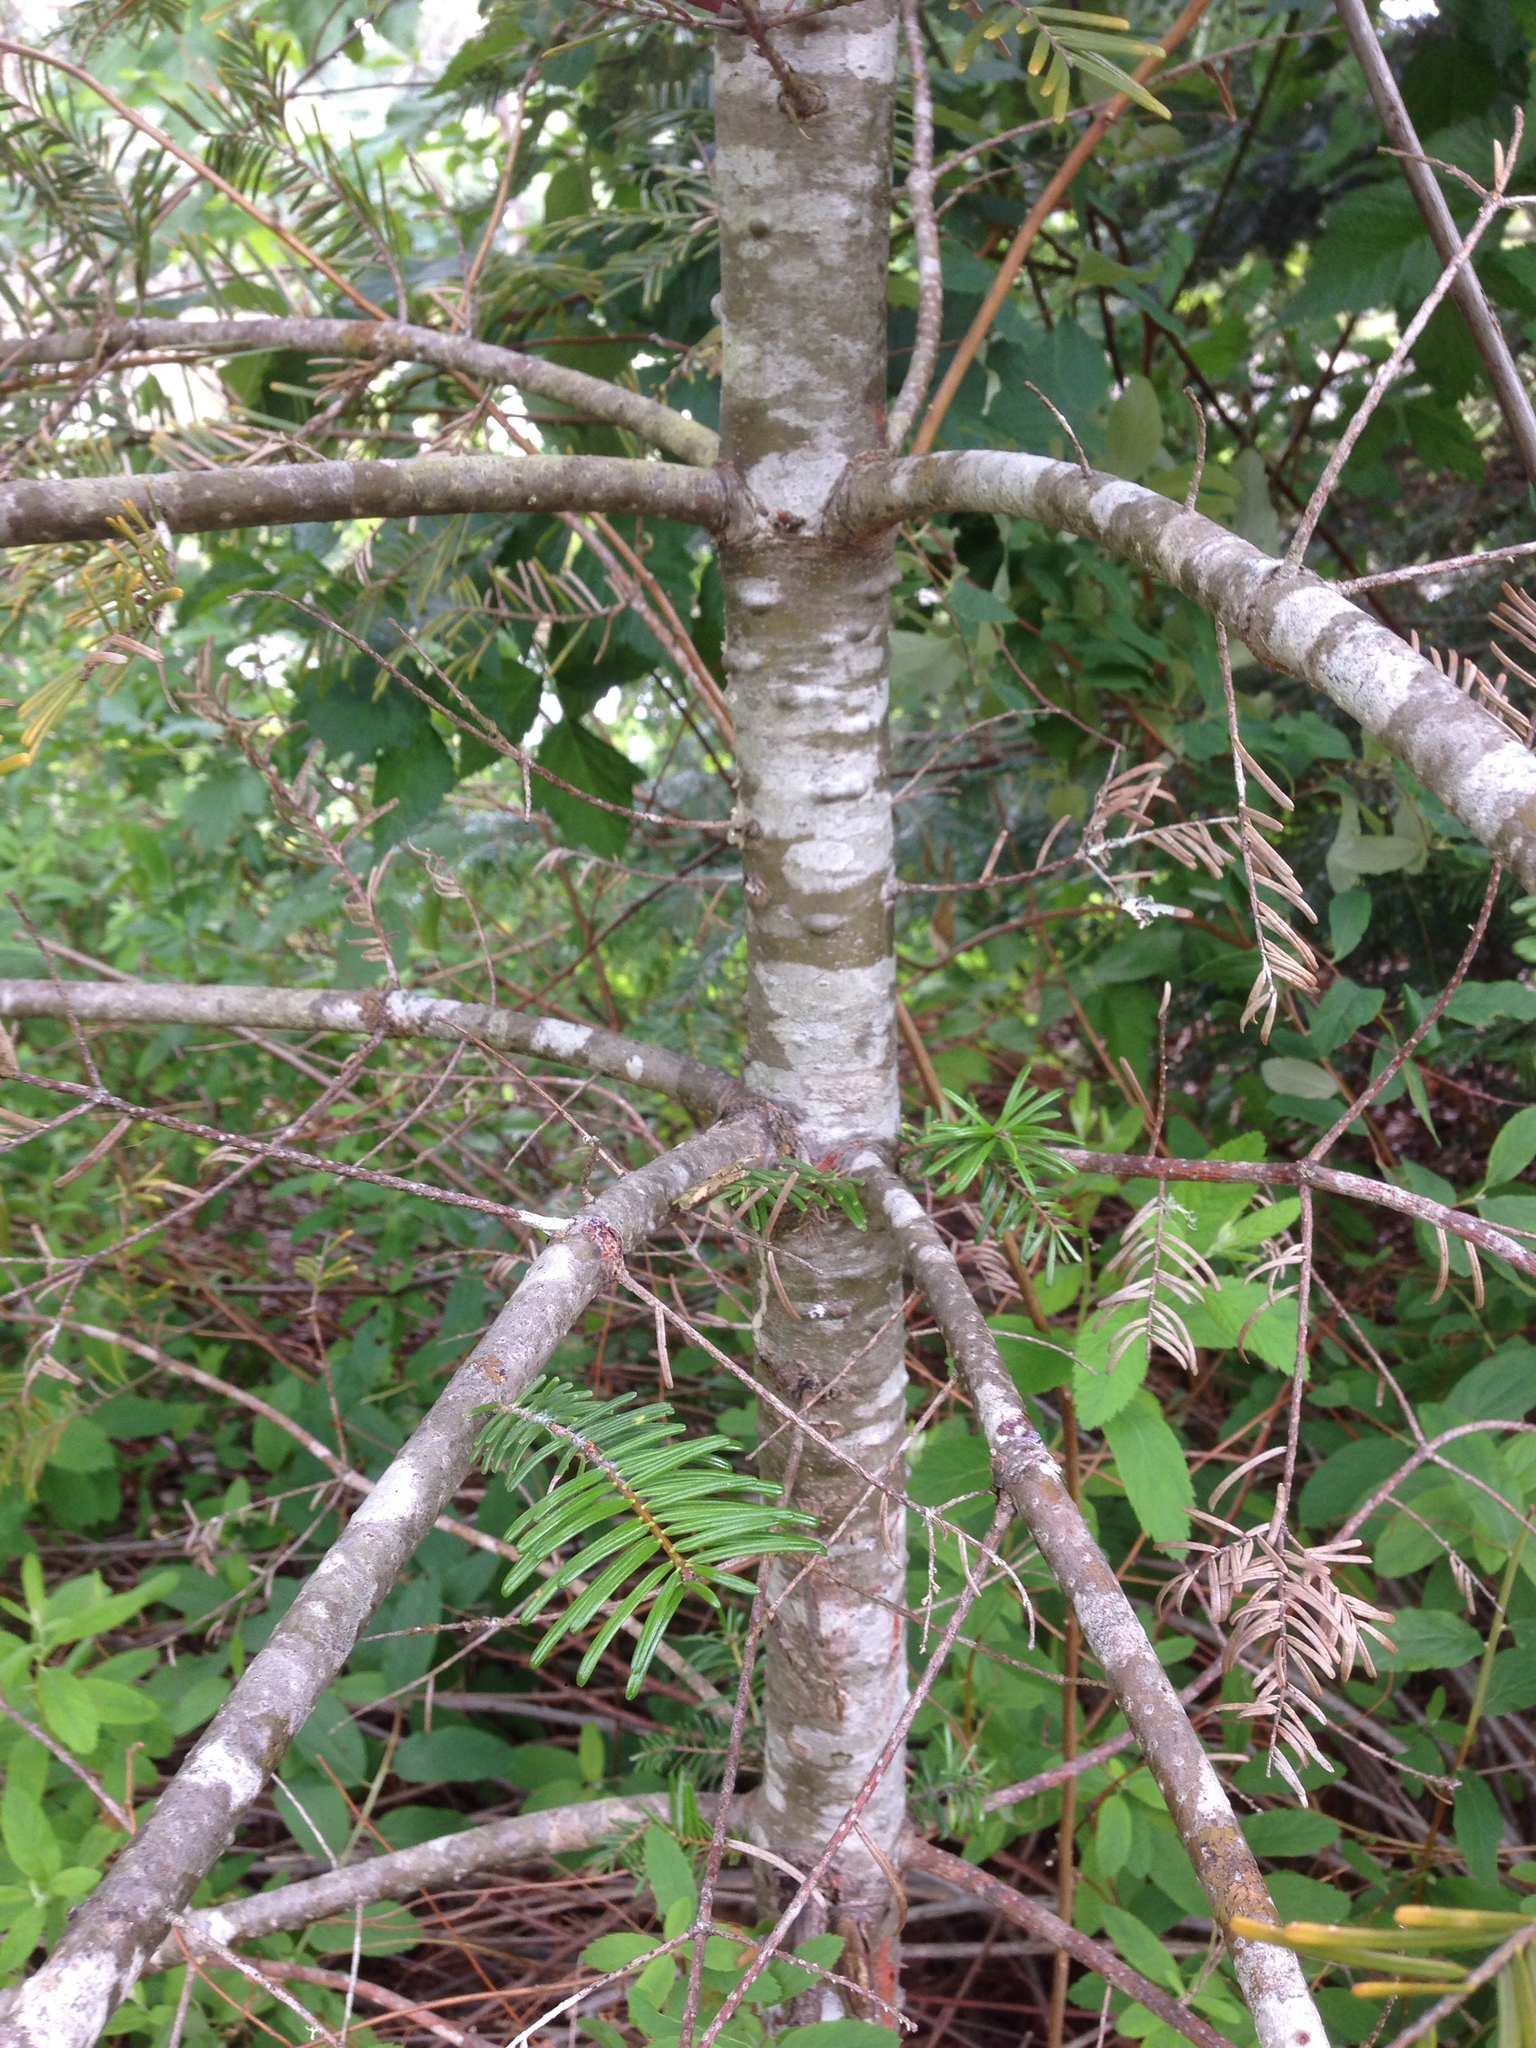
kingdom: Plantae
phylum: Tracheophyta
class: Pinopsida
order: Pinales
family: Pinaceae
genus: Abies
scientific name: Abies grandis
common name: Giant fir
